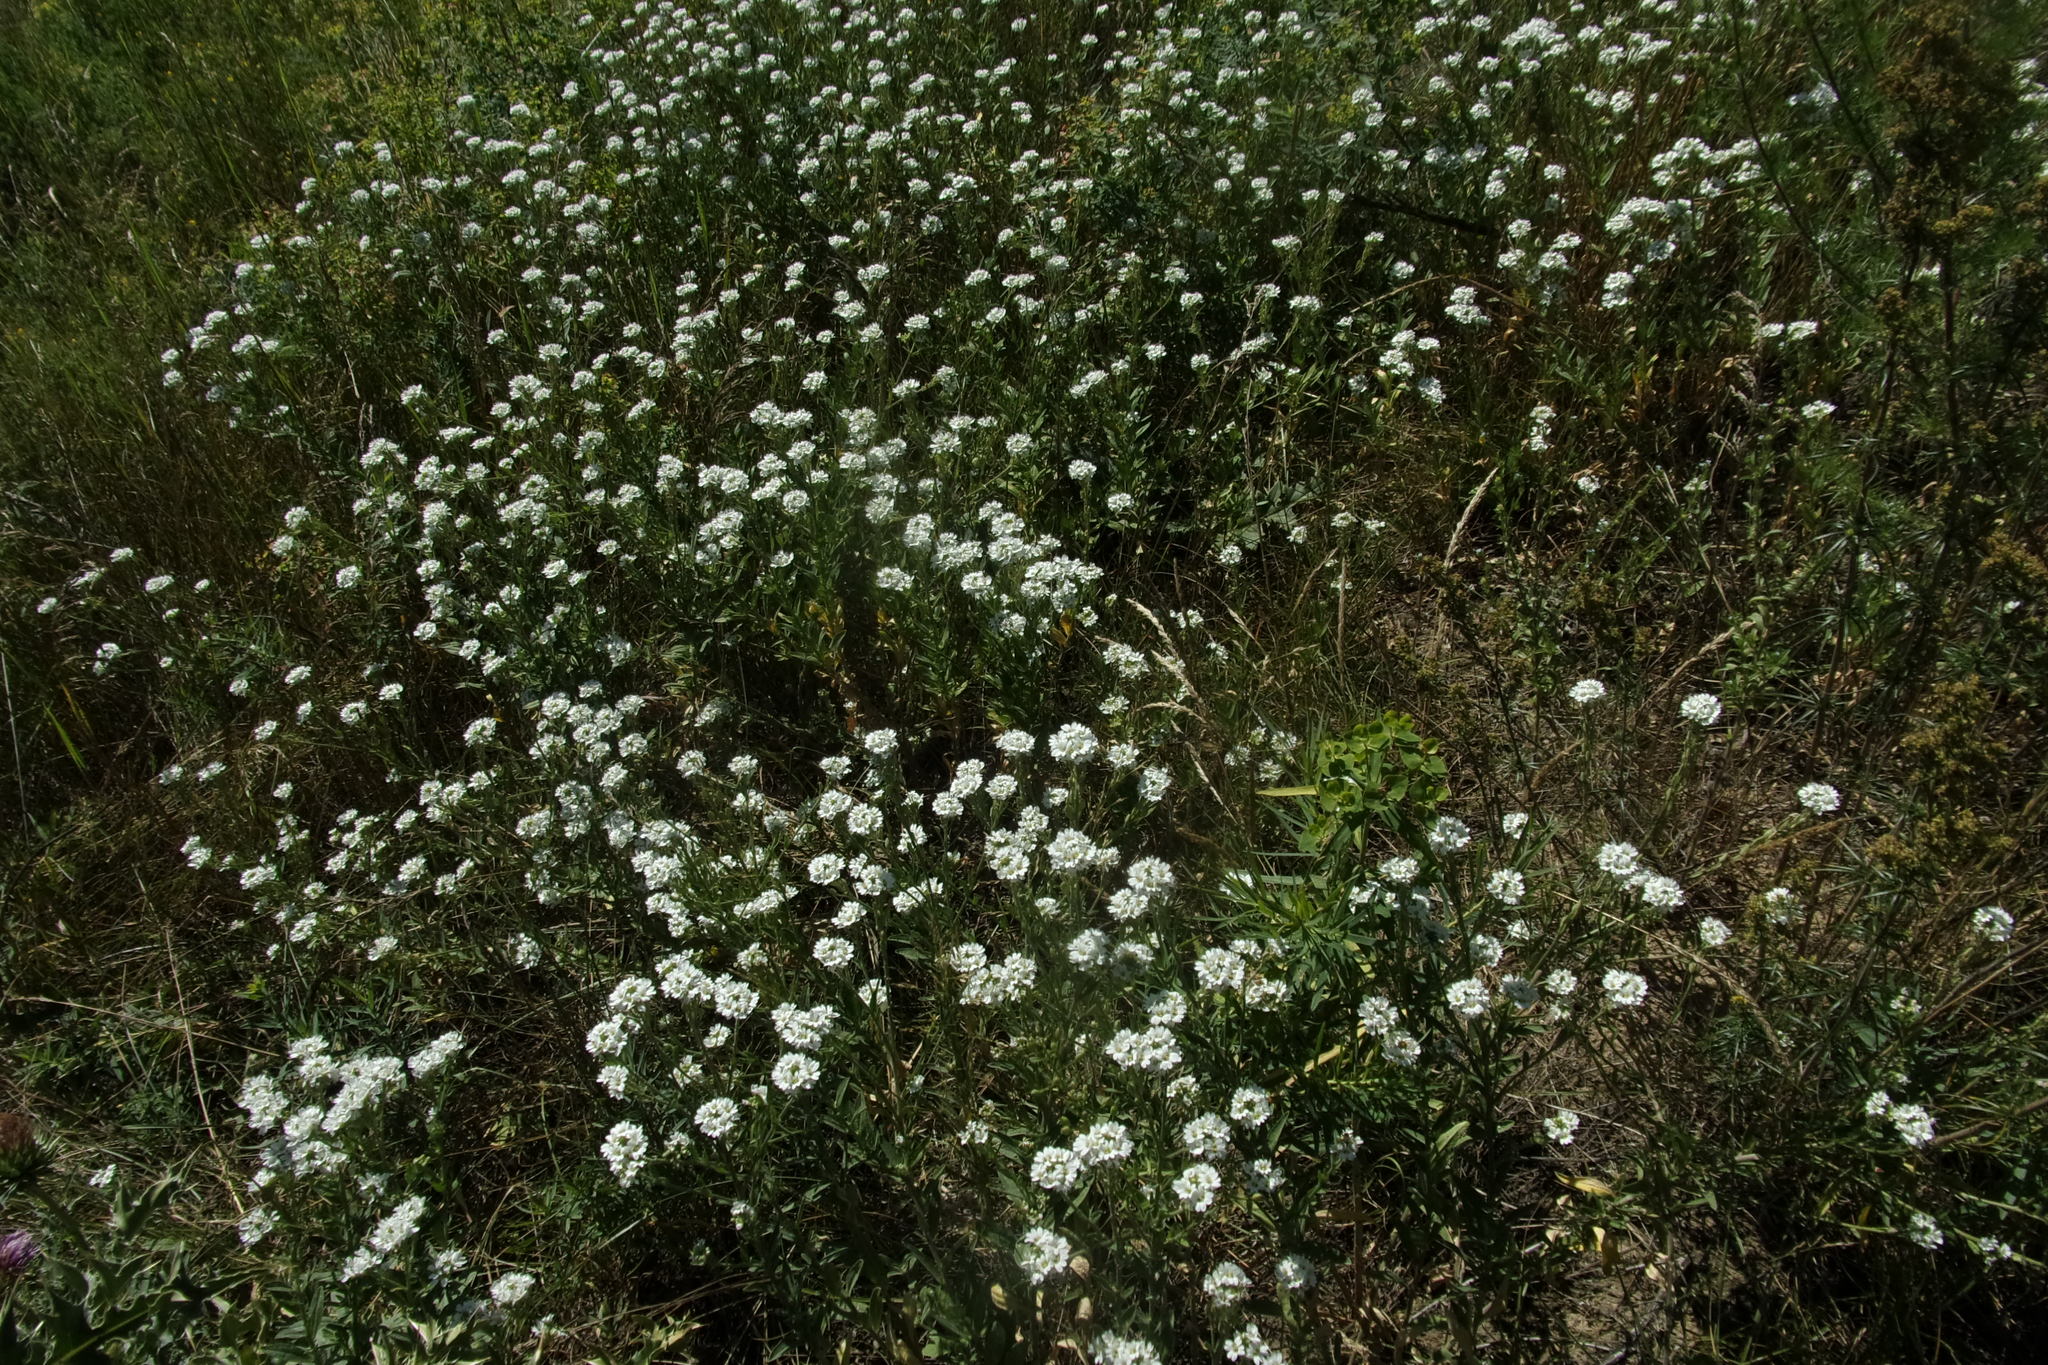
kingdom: Plantae
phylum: Tracheophyta
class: Magnoliopsida
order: Brassicales
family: Brassicaceae
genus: Berteroa
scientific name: Berteroa incana
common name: Hoary alison
